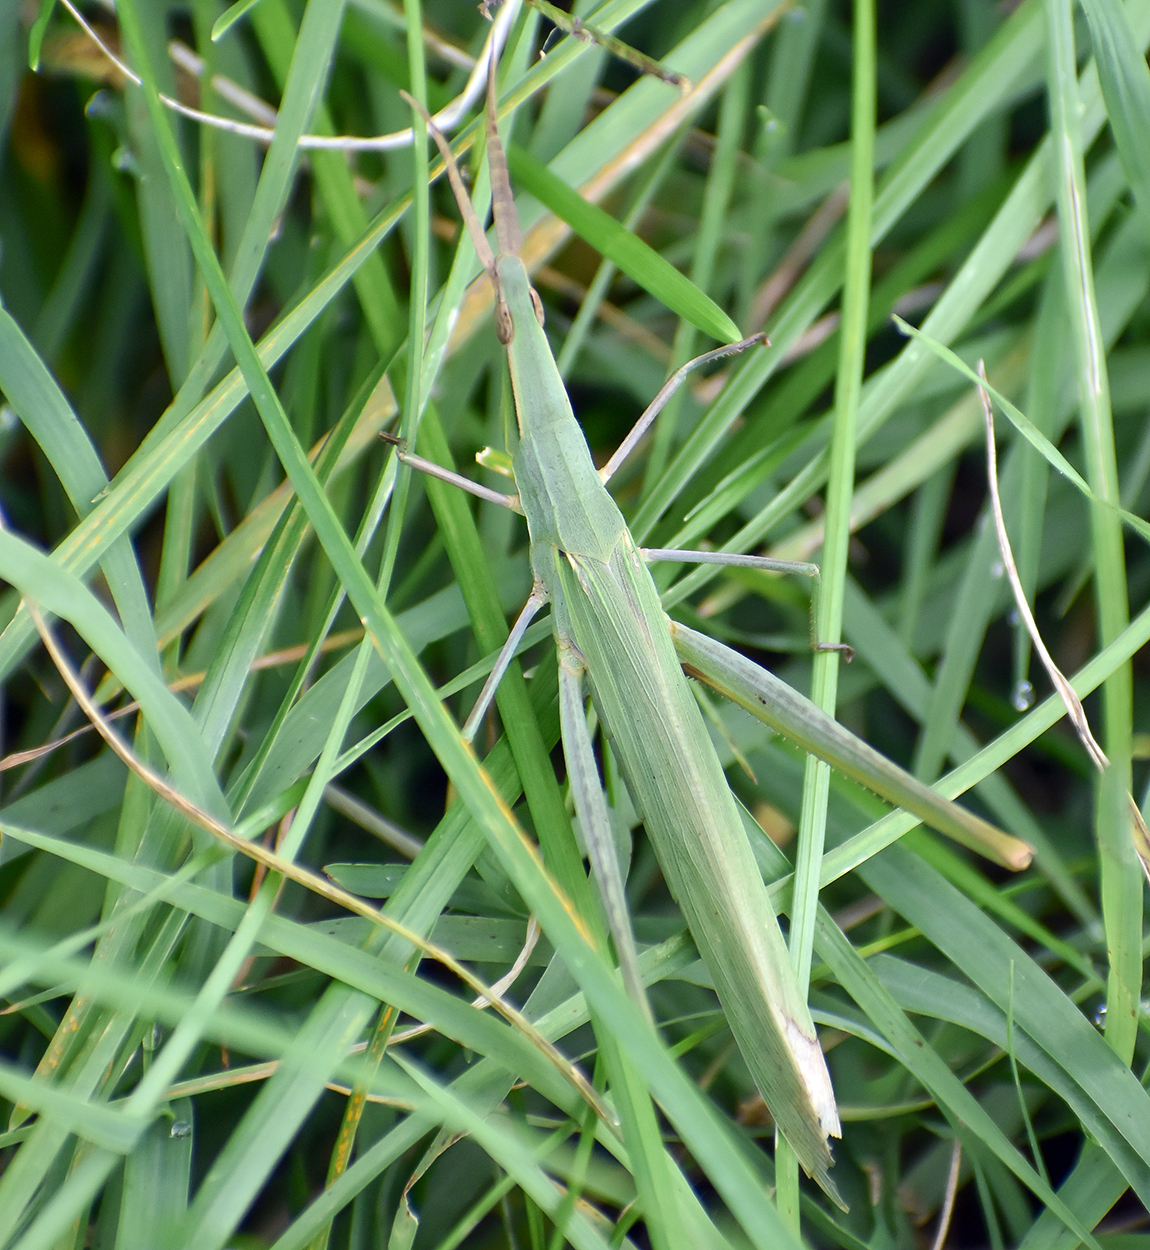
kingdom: Animalia
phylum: Arthropoda
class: Insecta
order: Orthoptera
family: Acrididae
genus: Acrida
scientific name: Acrida ungarica
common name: Common cone-headed grasshopper
